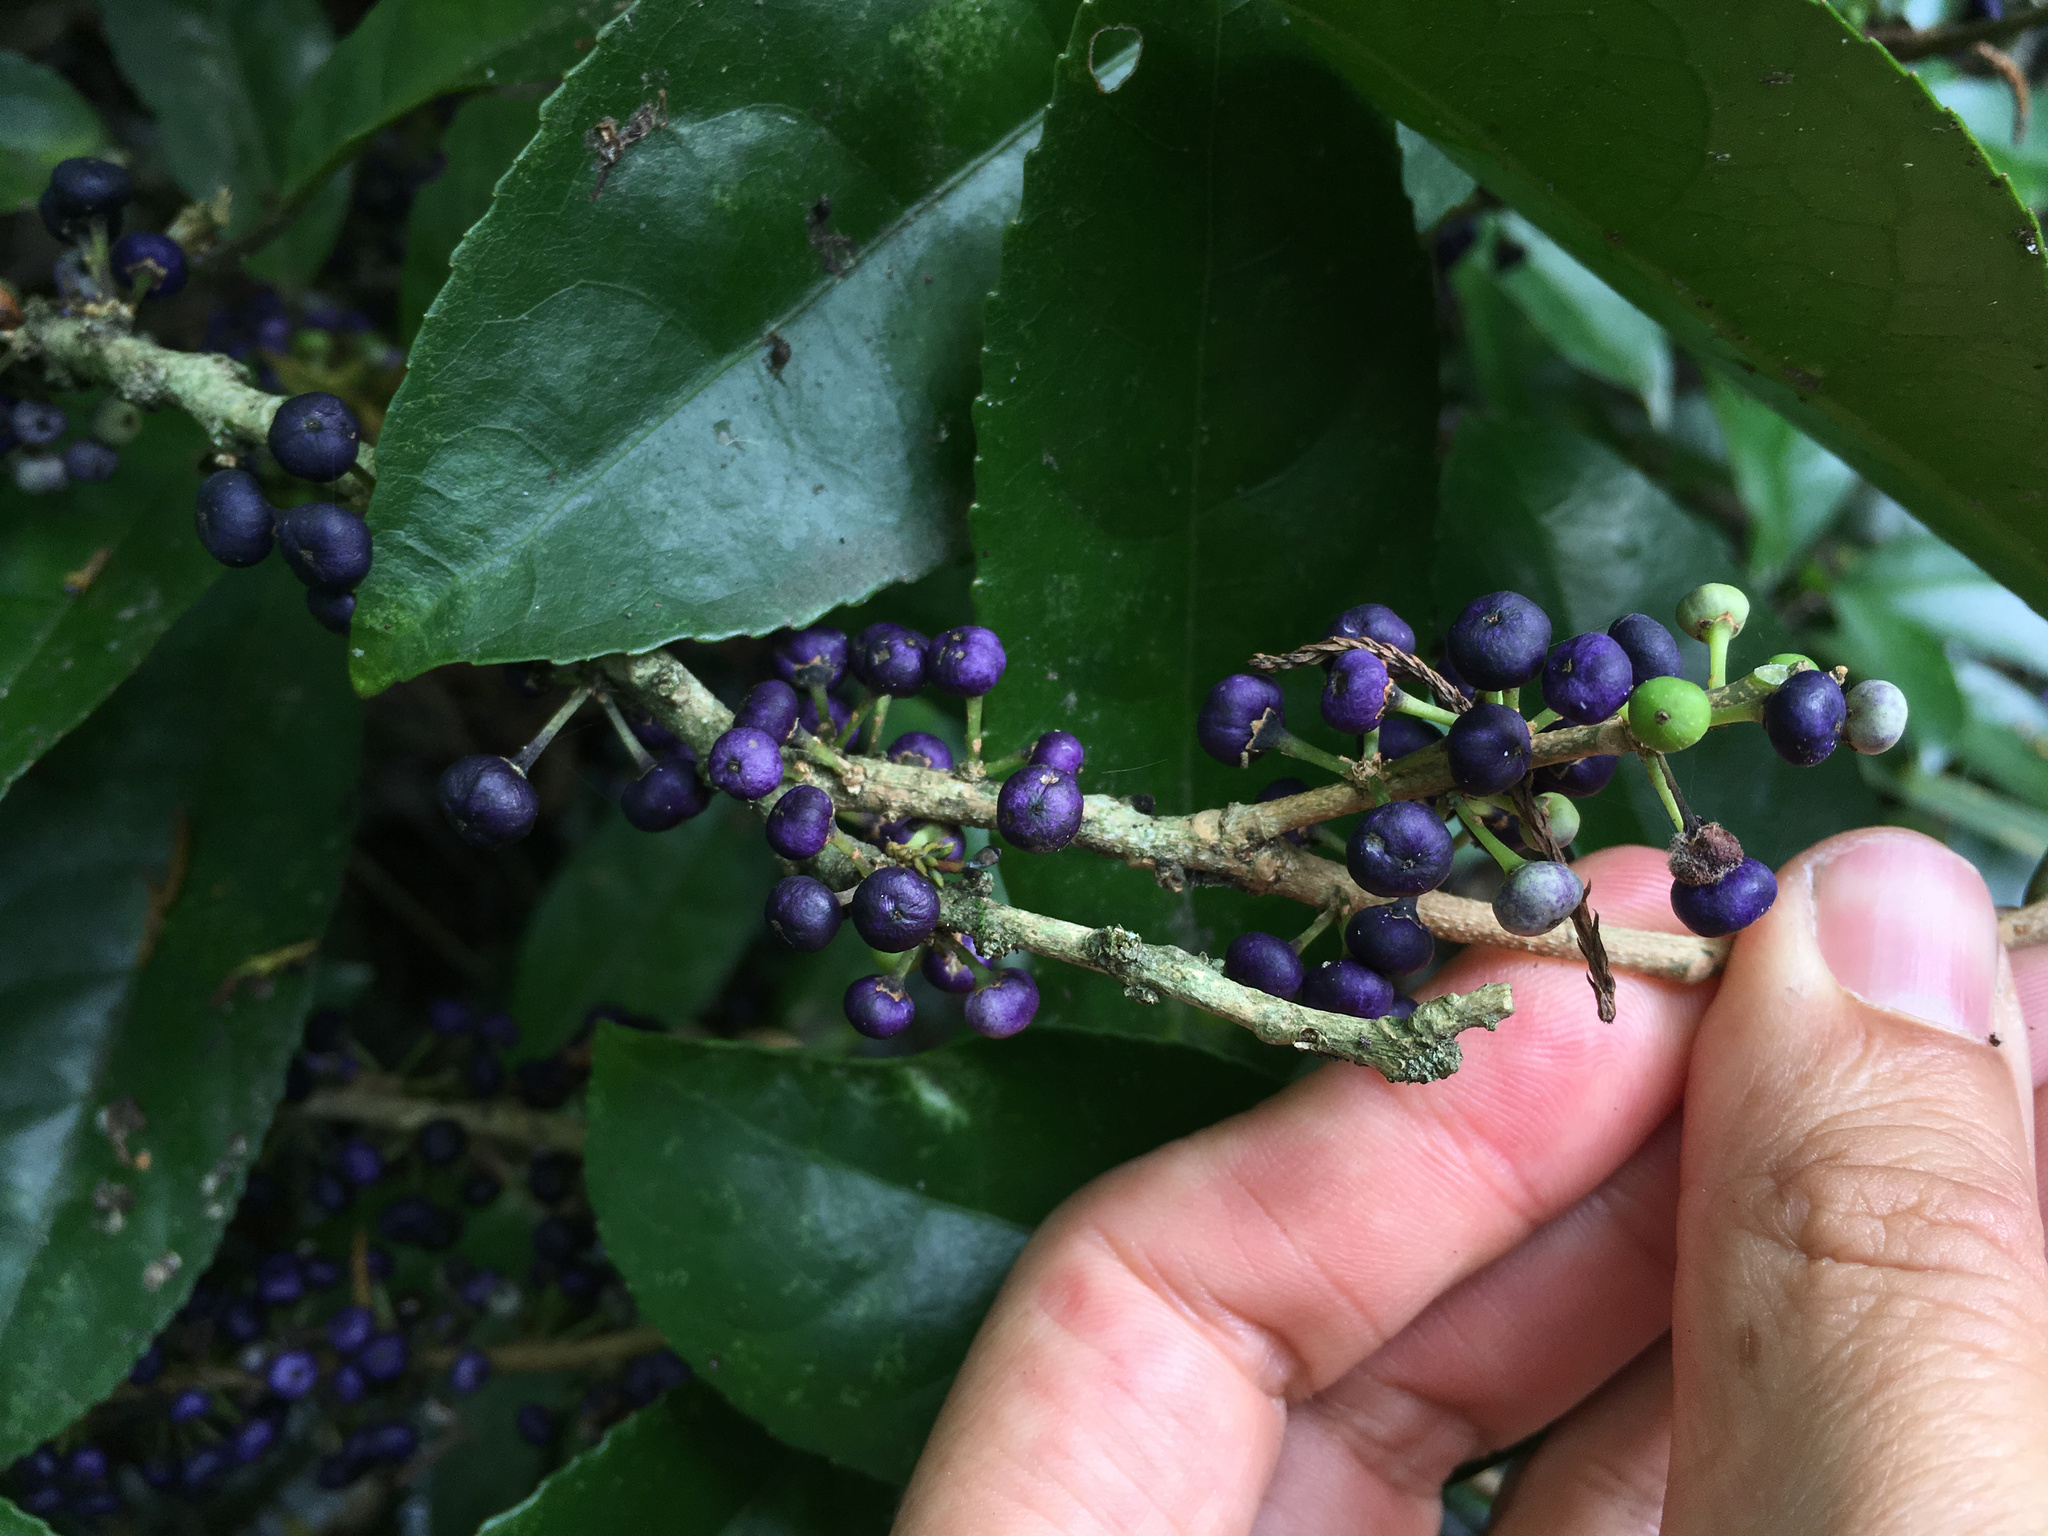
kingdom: Plantae
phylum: Tracheophyta
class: Magnoliopsida
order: Malpighiales
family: Violaceae
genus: Melicytus
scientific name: Melicytus ramiflorus
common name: Mahoe
